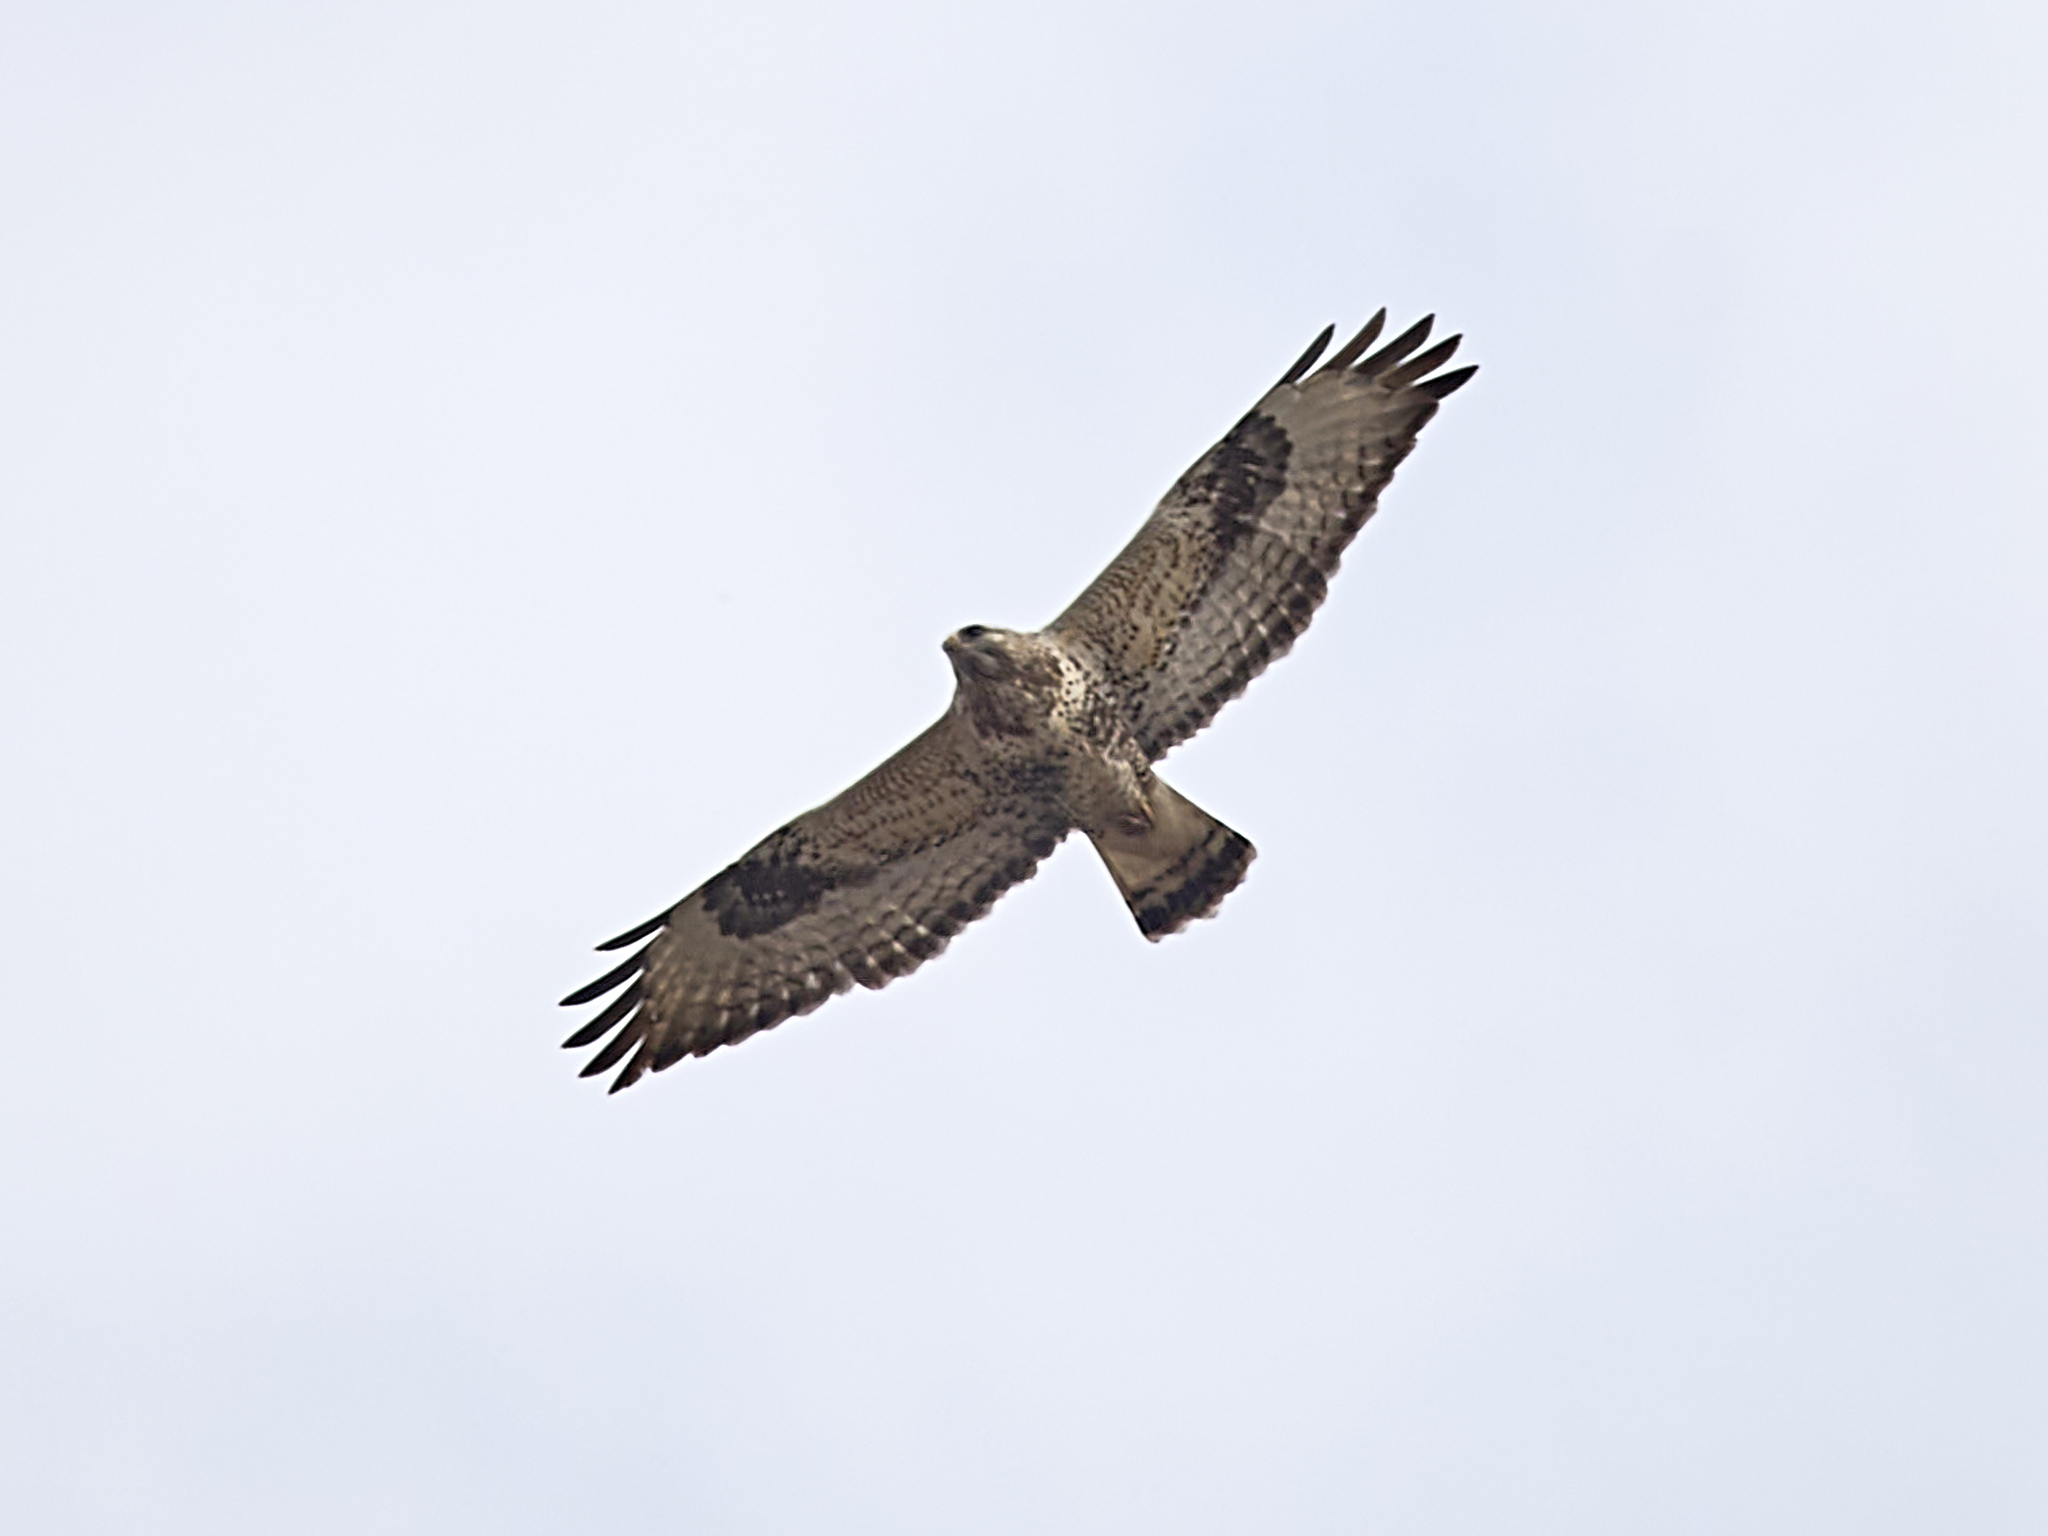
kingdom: Animalia
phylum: Chordata
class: Aves
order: Accipitriformes
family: Accipitridae
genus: Buteo
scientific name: Buteo lagopus
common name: Rough-legged buzzard
